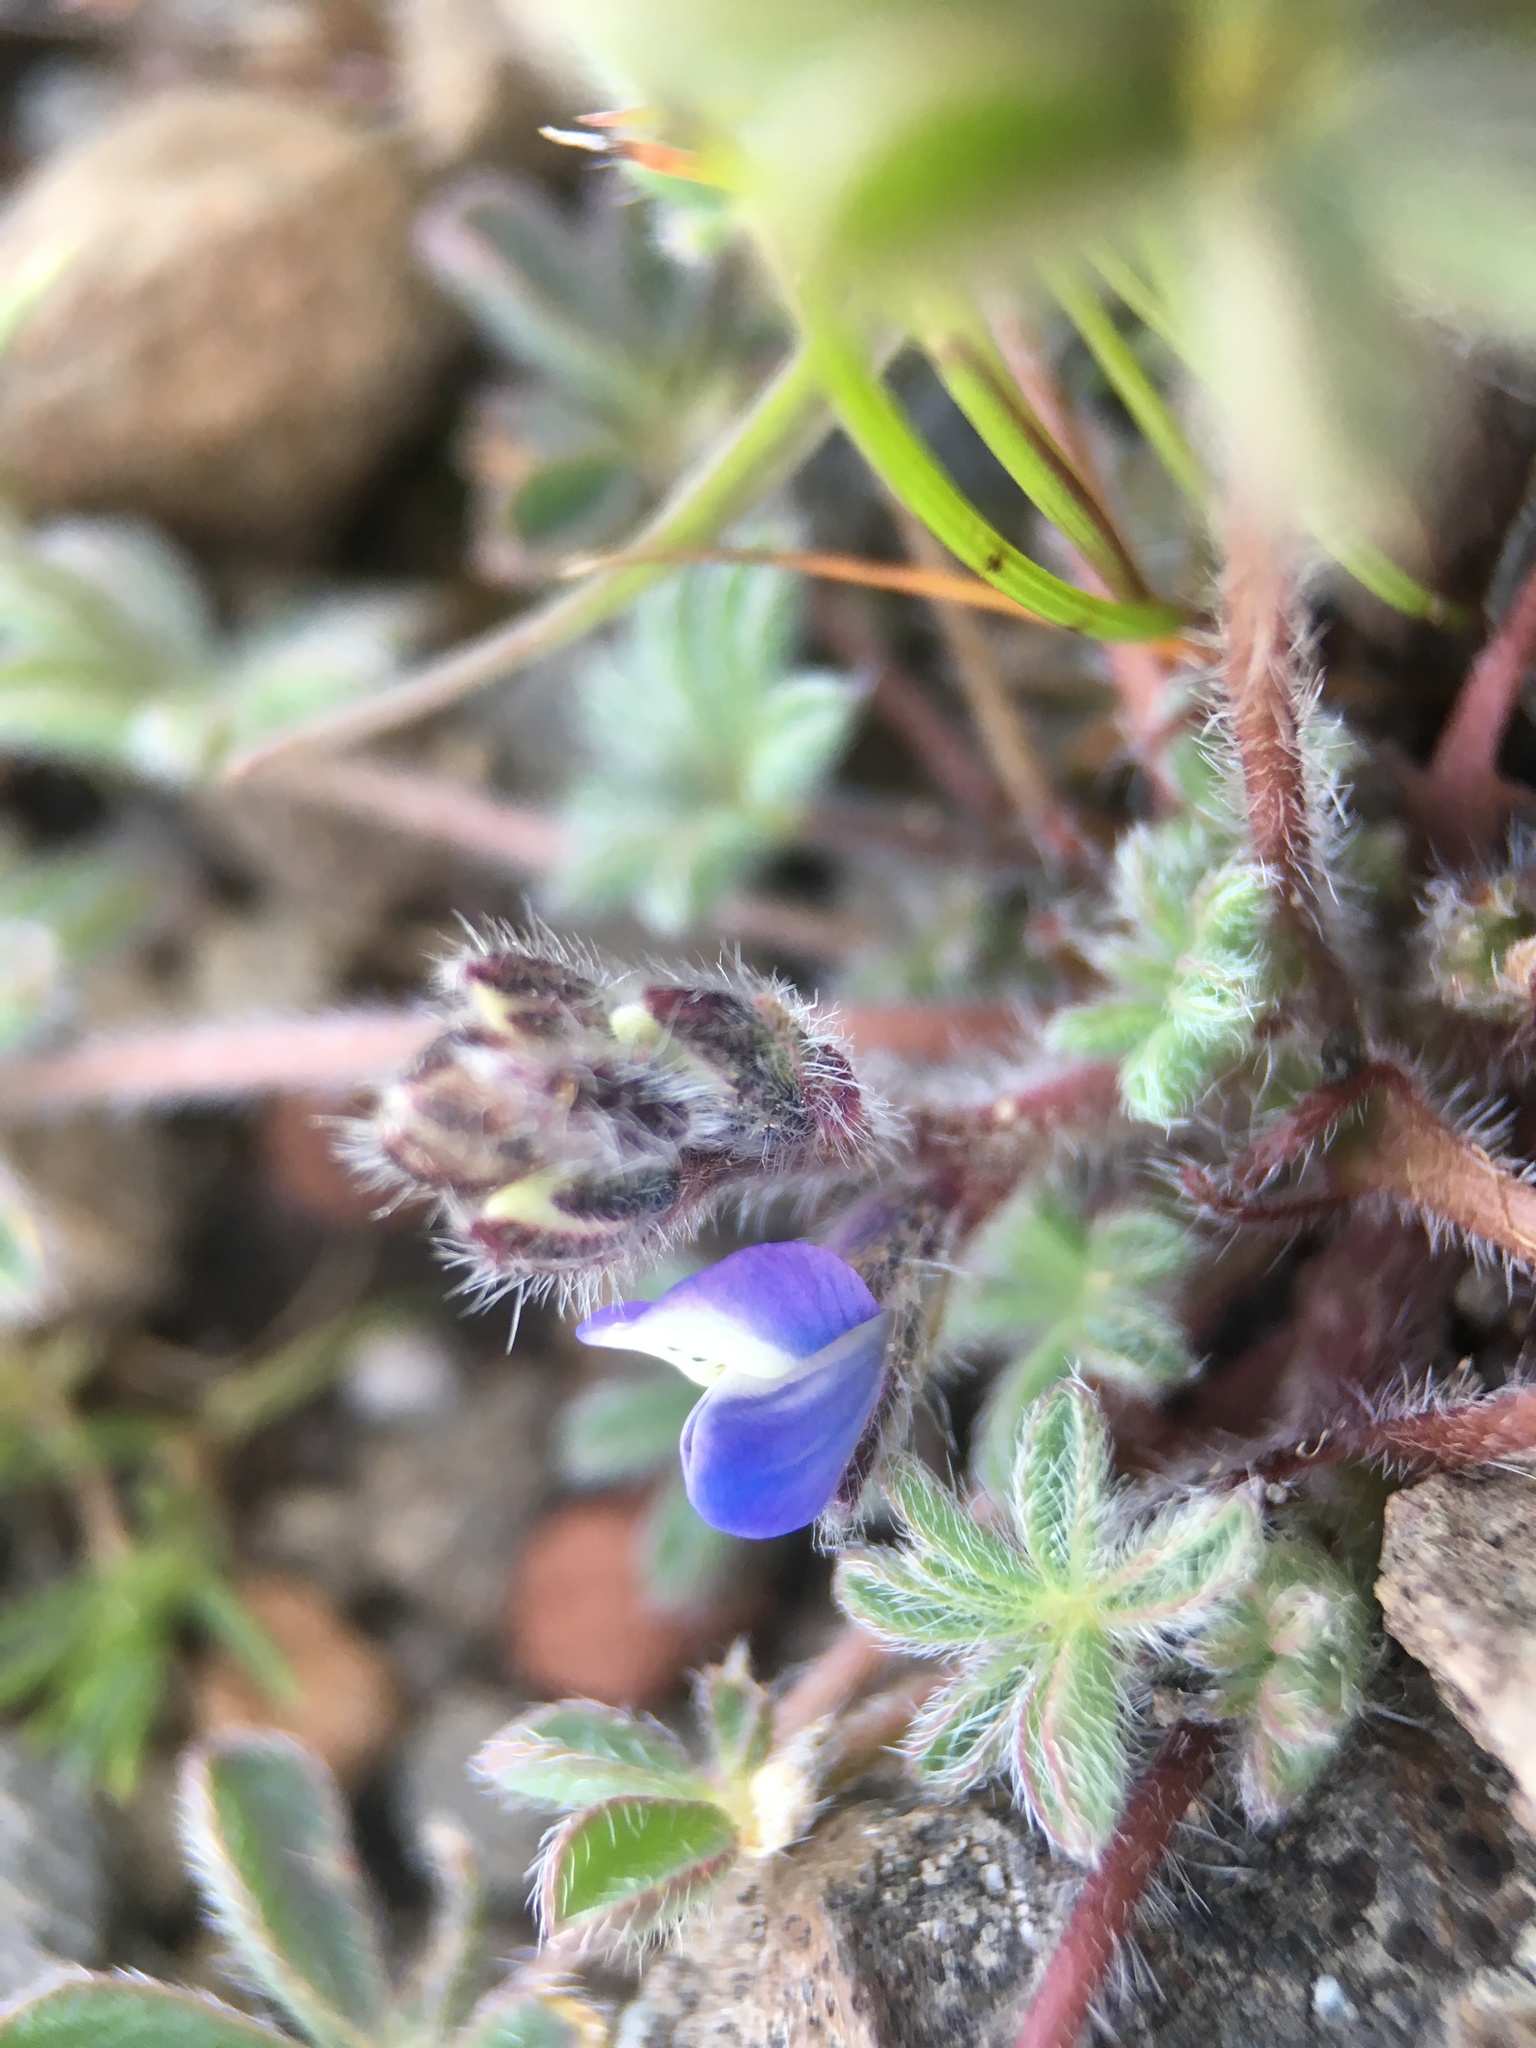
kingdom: Plantae
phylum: Tracheophyta
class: Magnoliopsida
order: Fabales
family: Fabaceae
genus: Lupinus
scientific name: Lupinus concinnus
